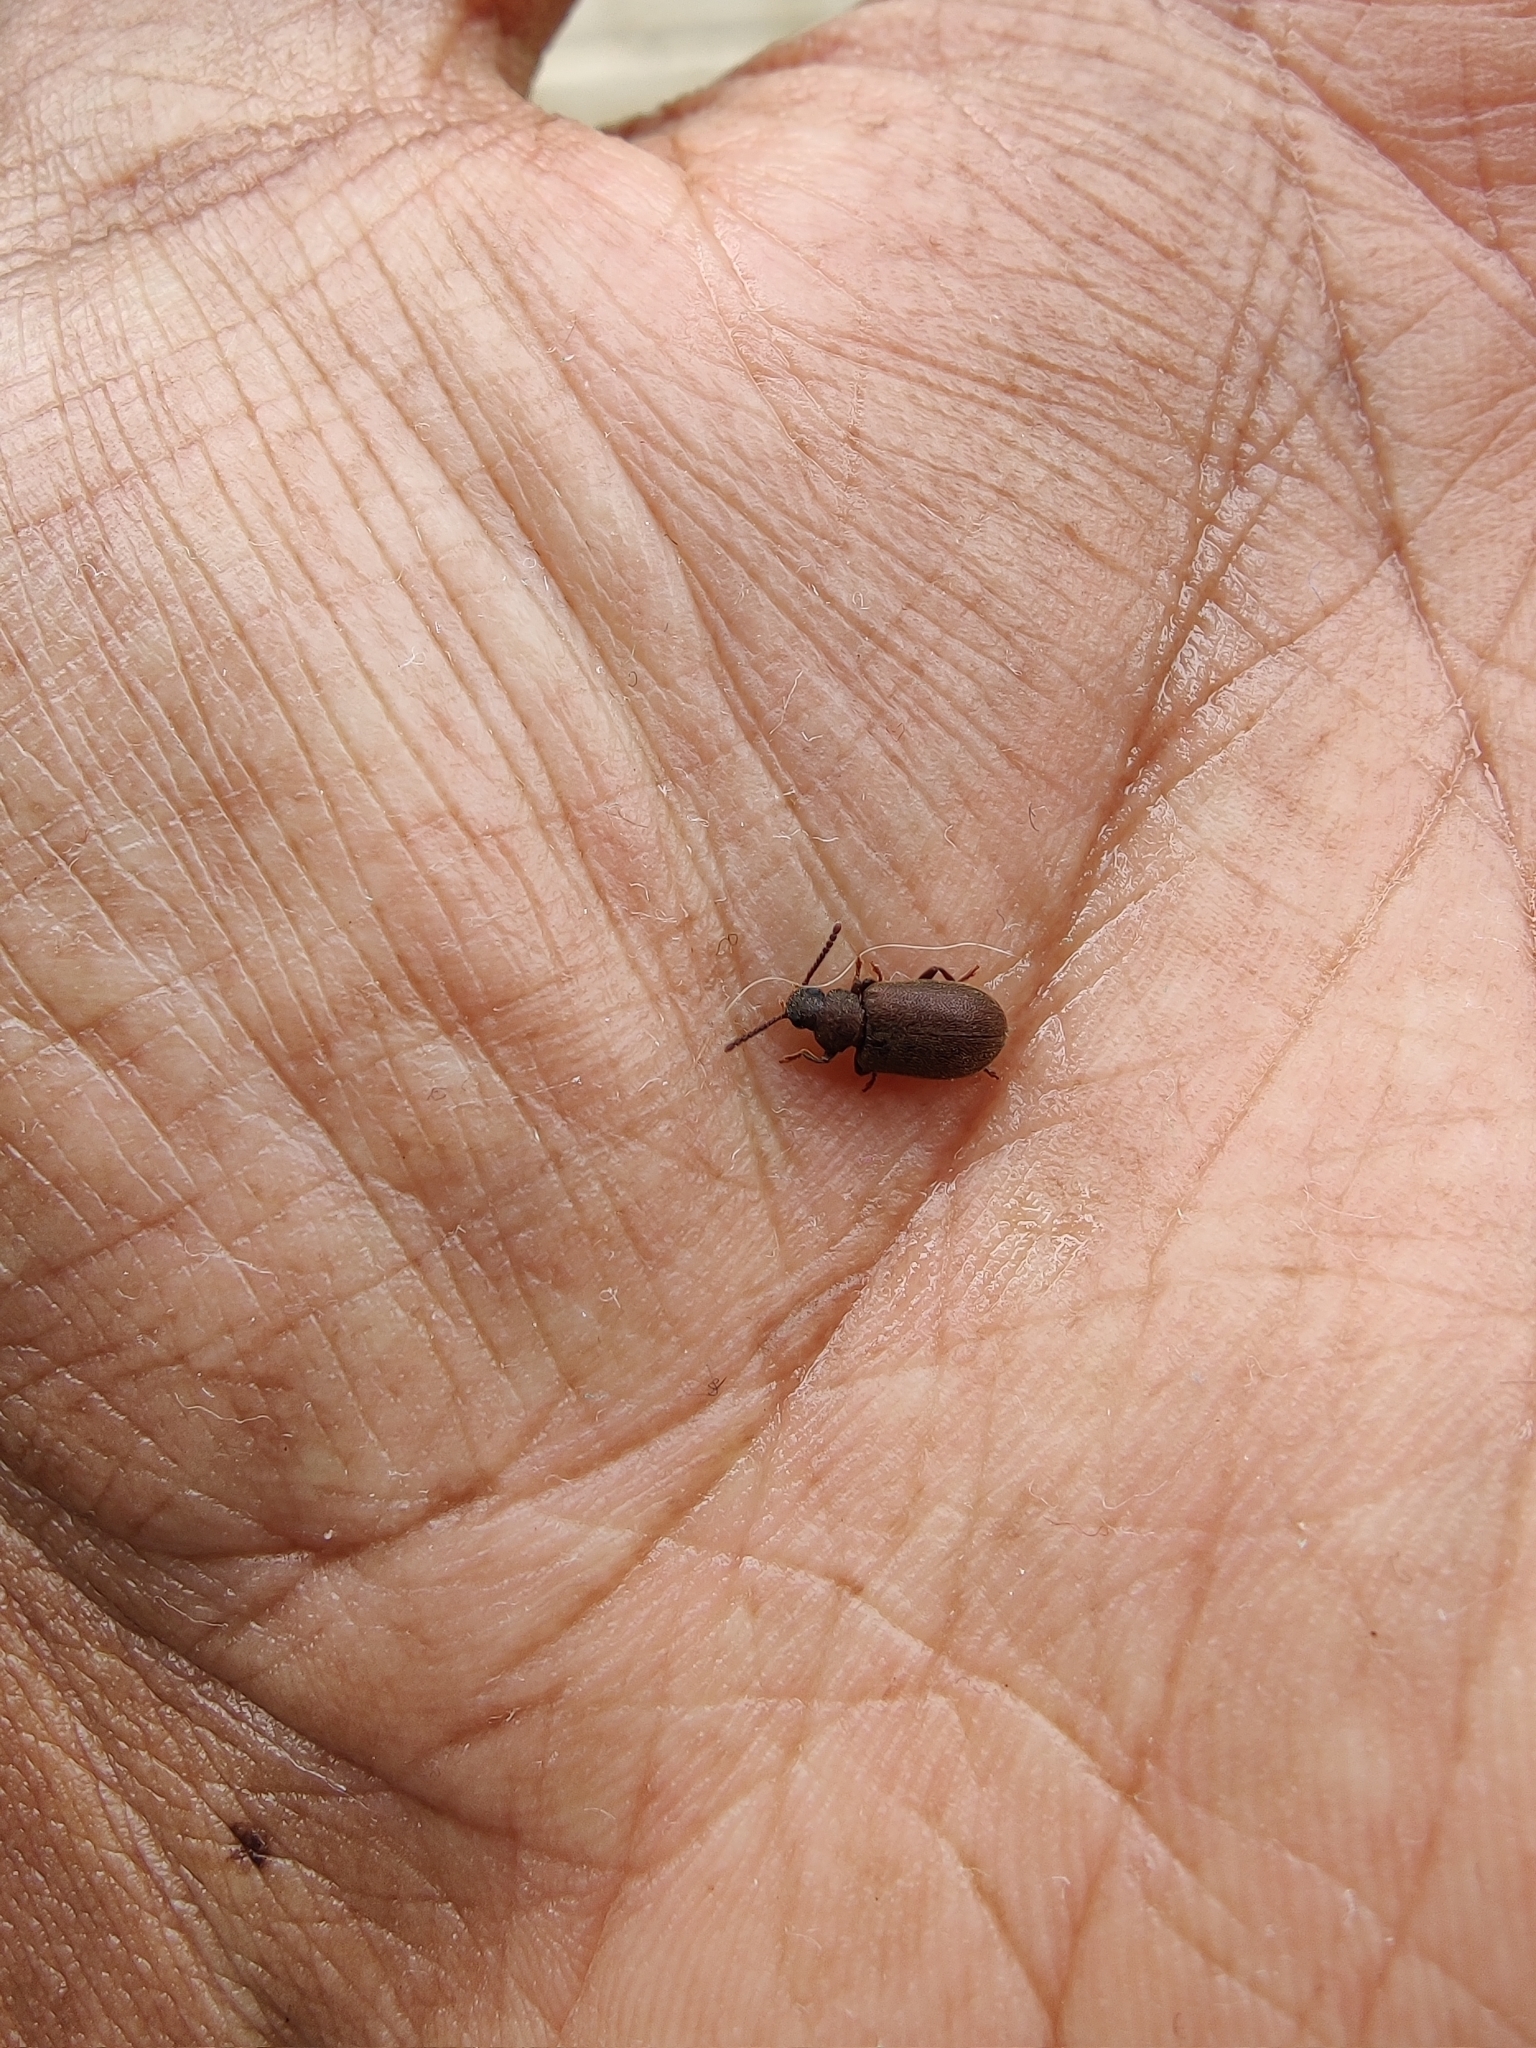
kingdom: Animalia
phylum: Arthropoda
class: Insecta
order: Coleoptera
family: Tenebrionidae
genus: Hegeter
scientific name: Hegeter tristis
